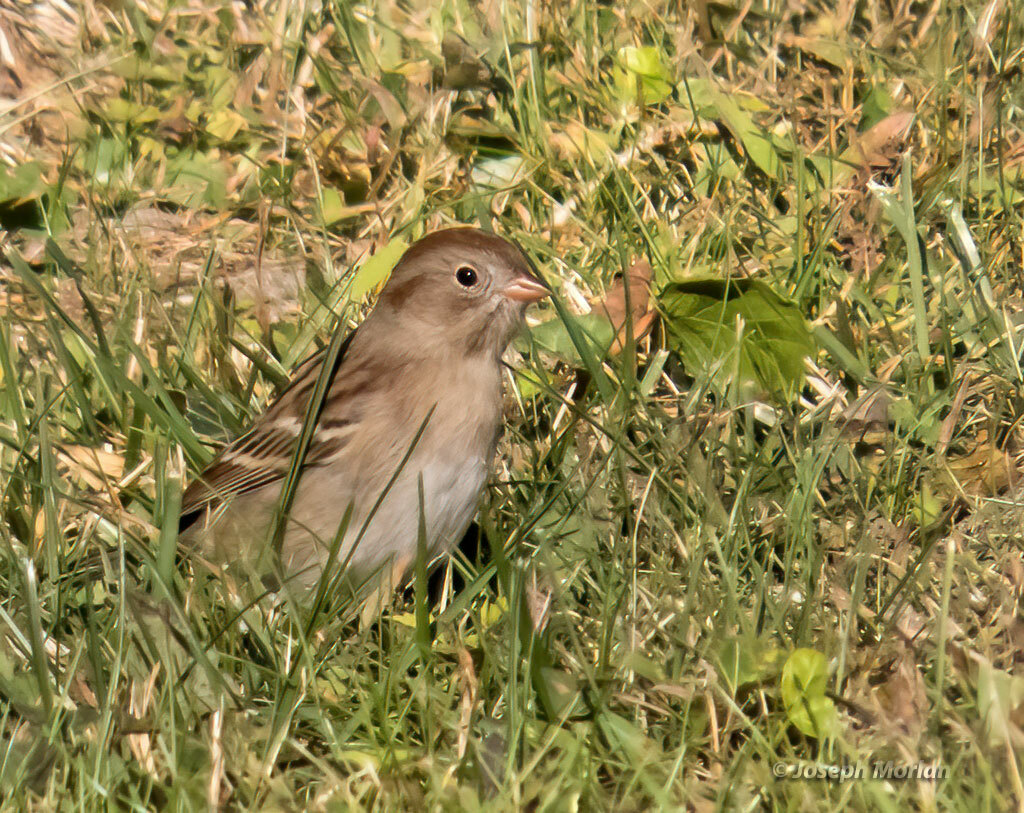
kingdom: Animalia
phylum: Chordata
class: Aves
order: Passeriformes
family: Passerellidae
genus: Spizella
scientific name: Spizella pusilla
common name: Field sparrow
